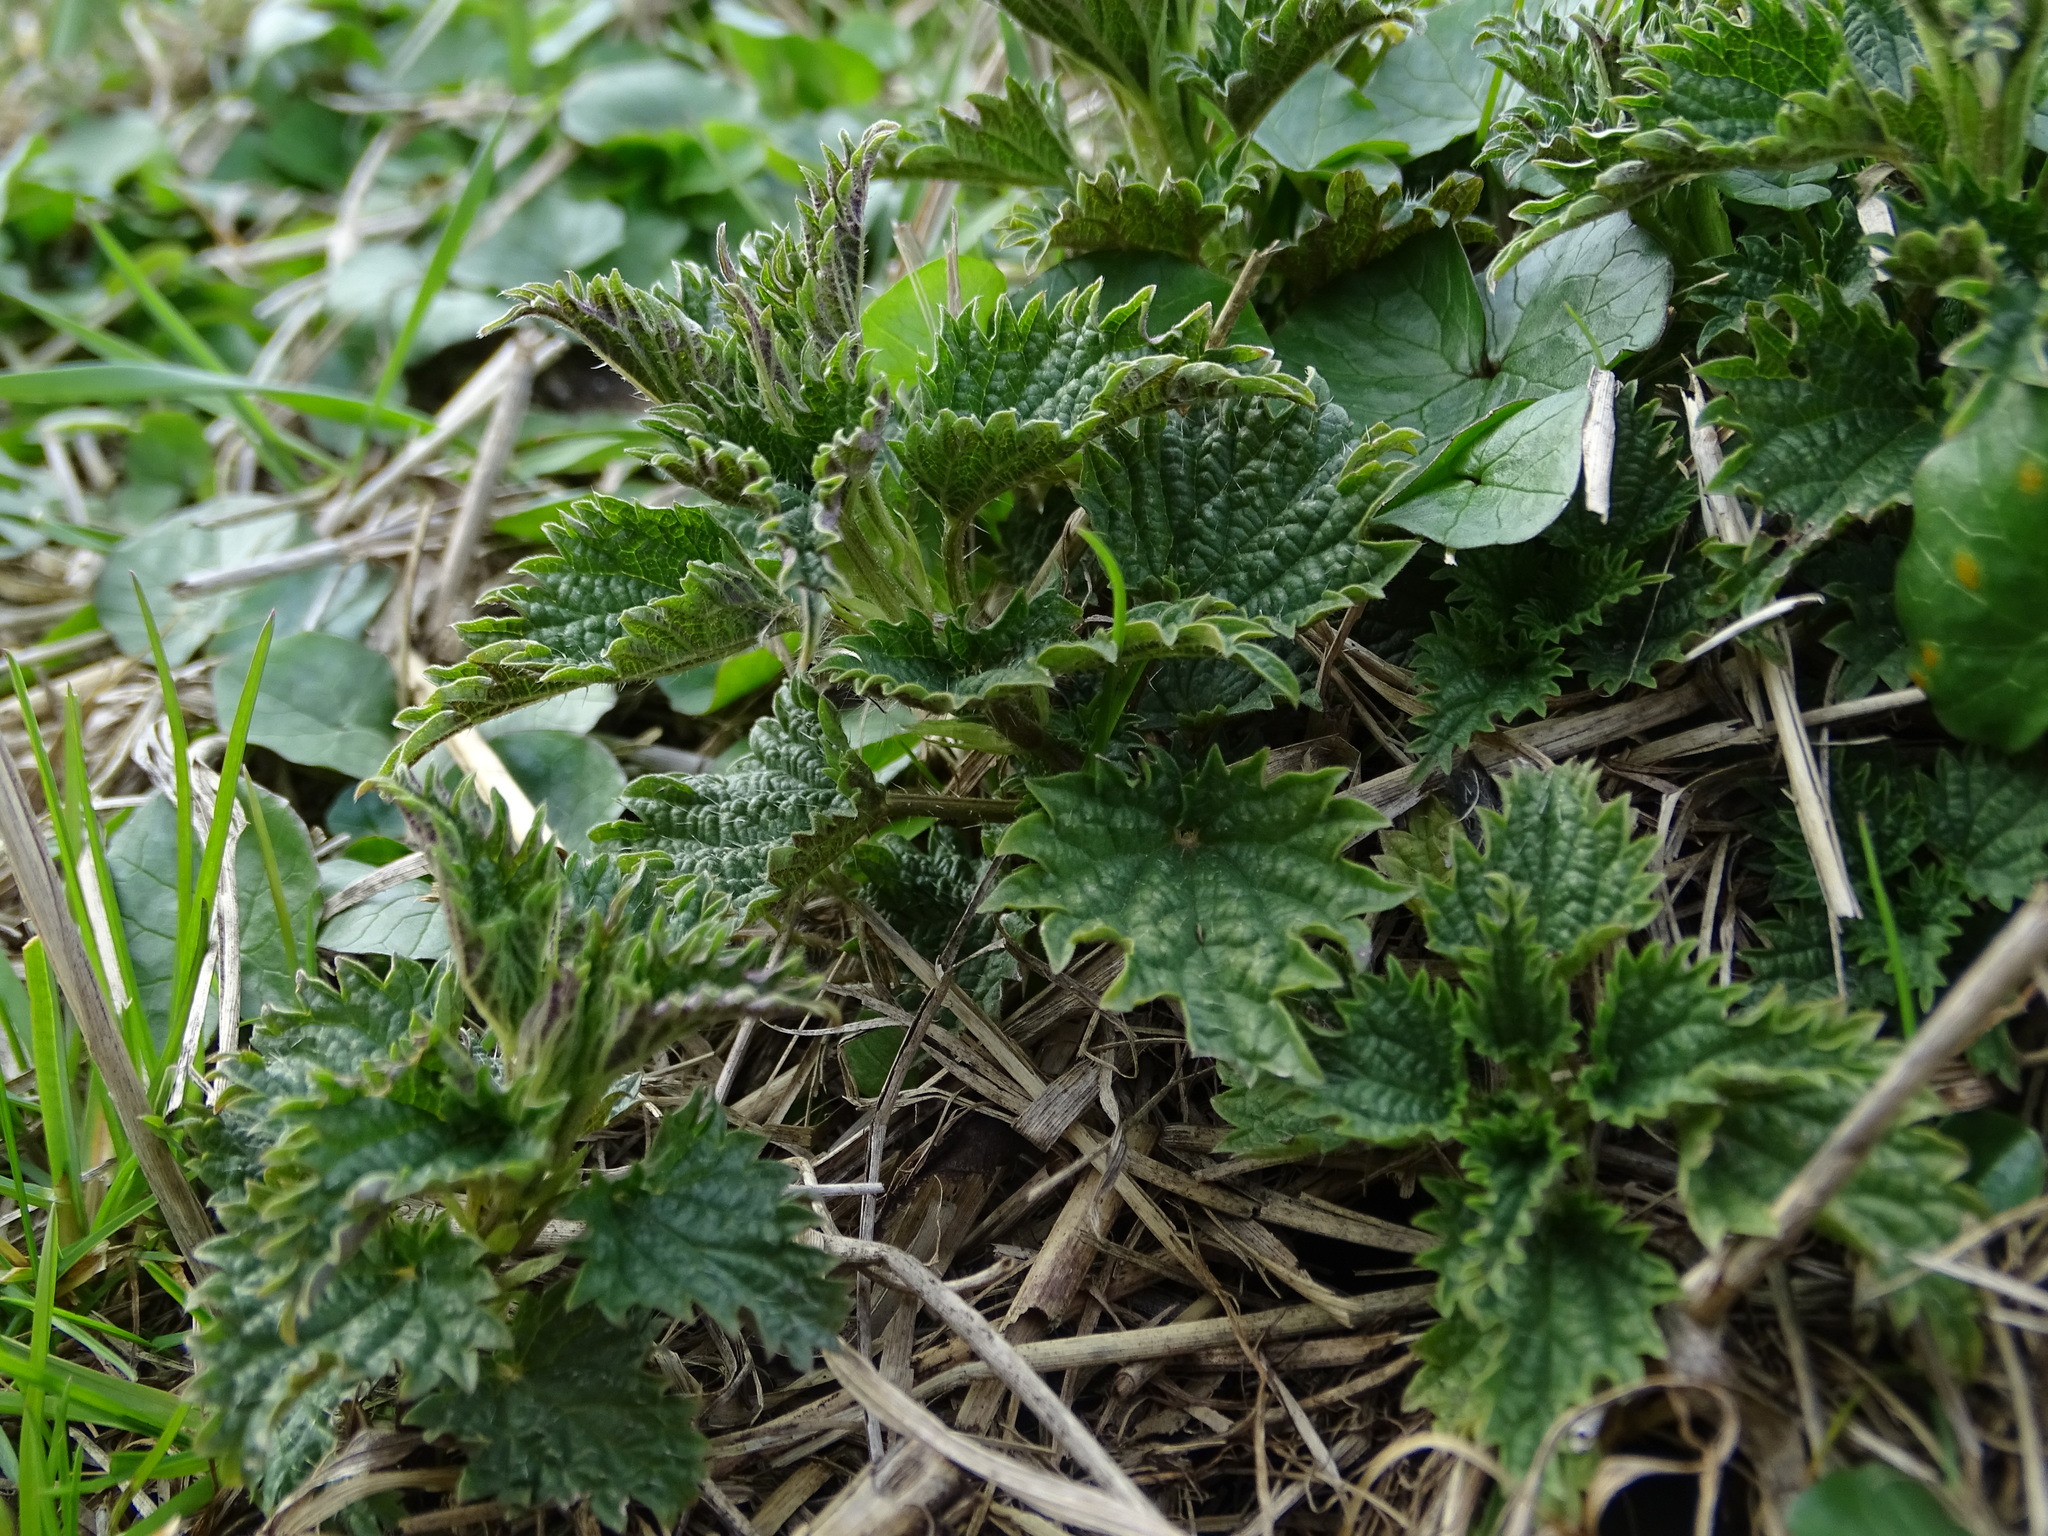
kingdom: Plantae
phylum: Tracheophyta
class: Magnoliopsida
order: Rosales
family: Urticaceae
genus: Urtica
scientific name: Urtica dioica
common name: Common nettle
